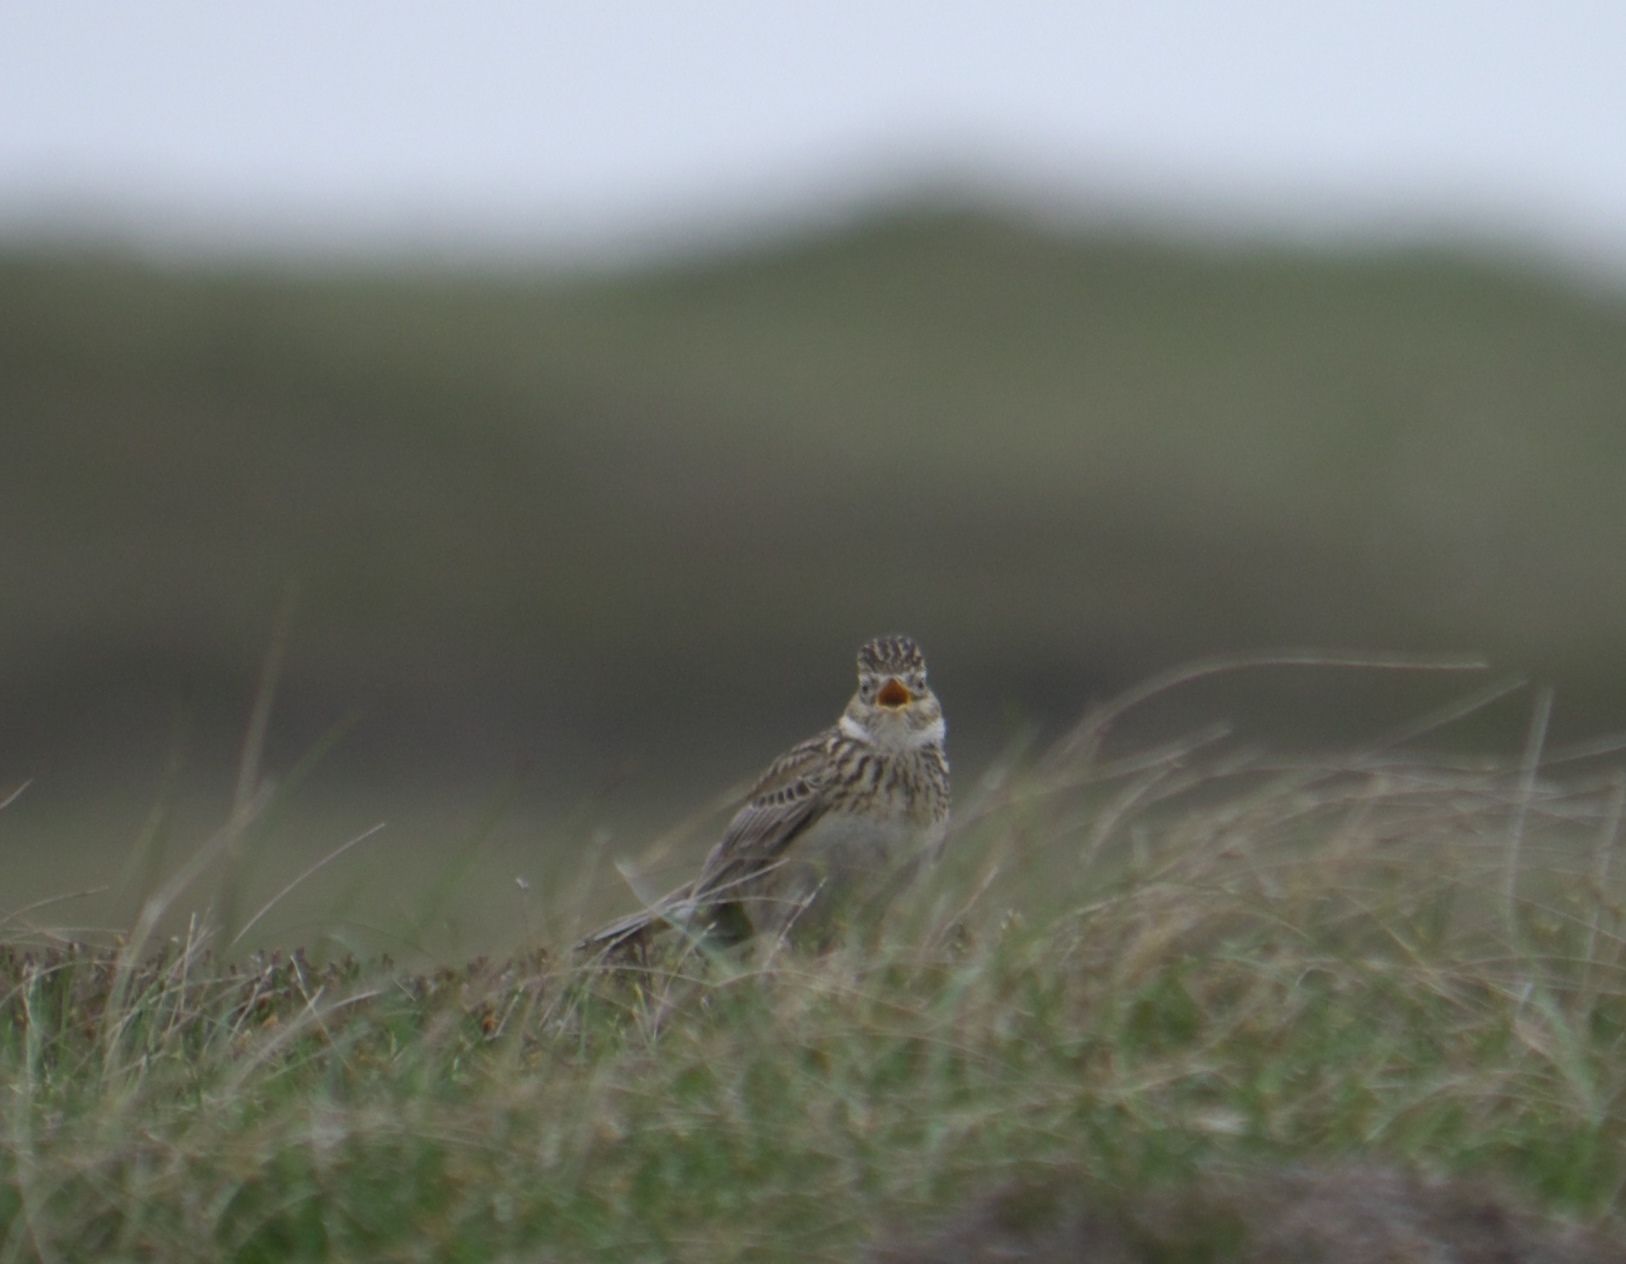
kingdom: Animalia
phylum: Chordata
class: Aves
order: Passeriformes
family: Alaudidae
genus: Alauda
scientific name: Alauda arvensis
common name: Eurasian skylark
